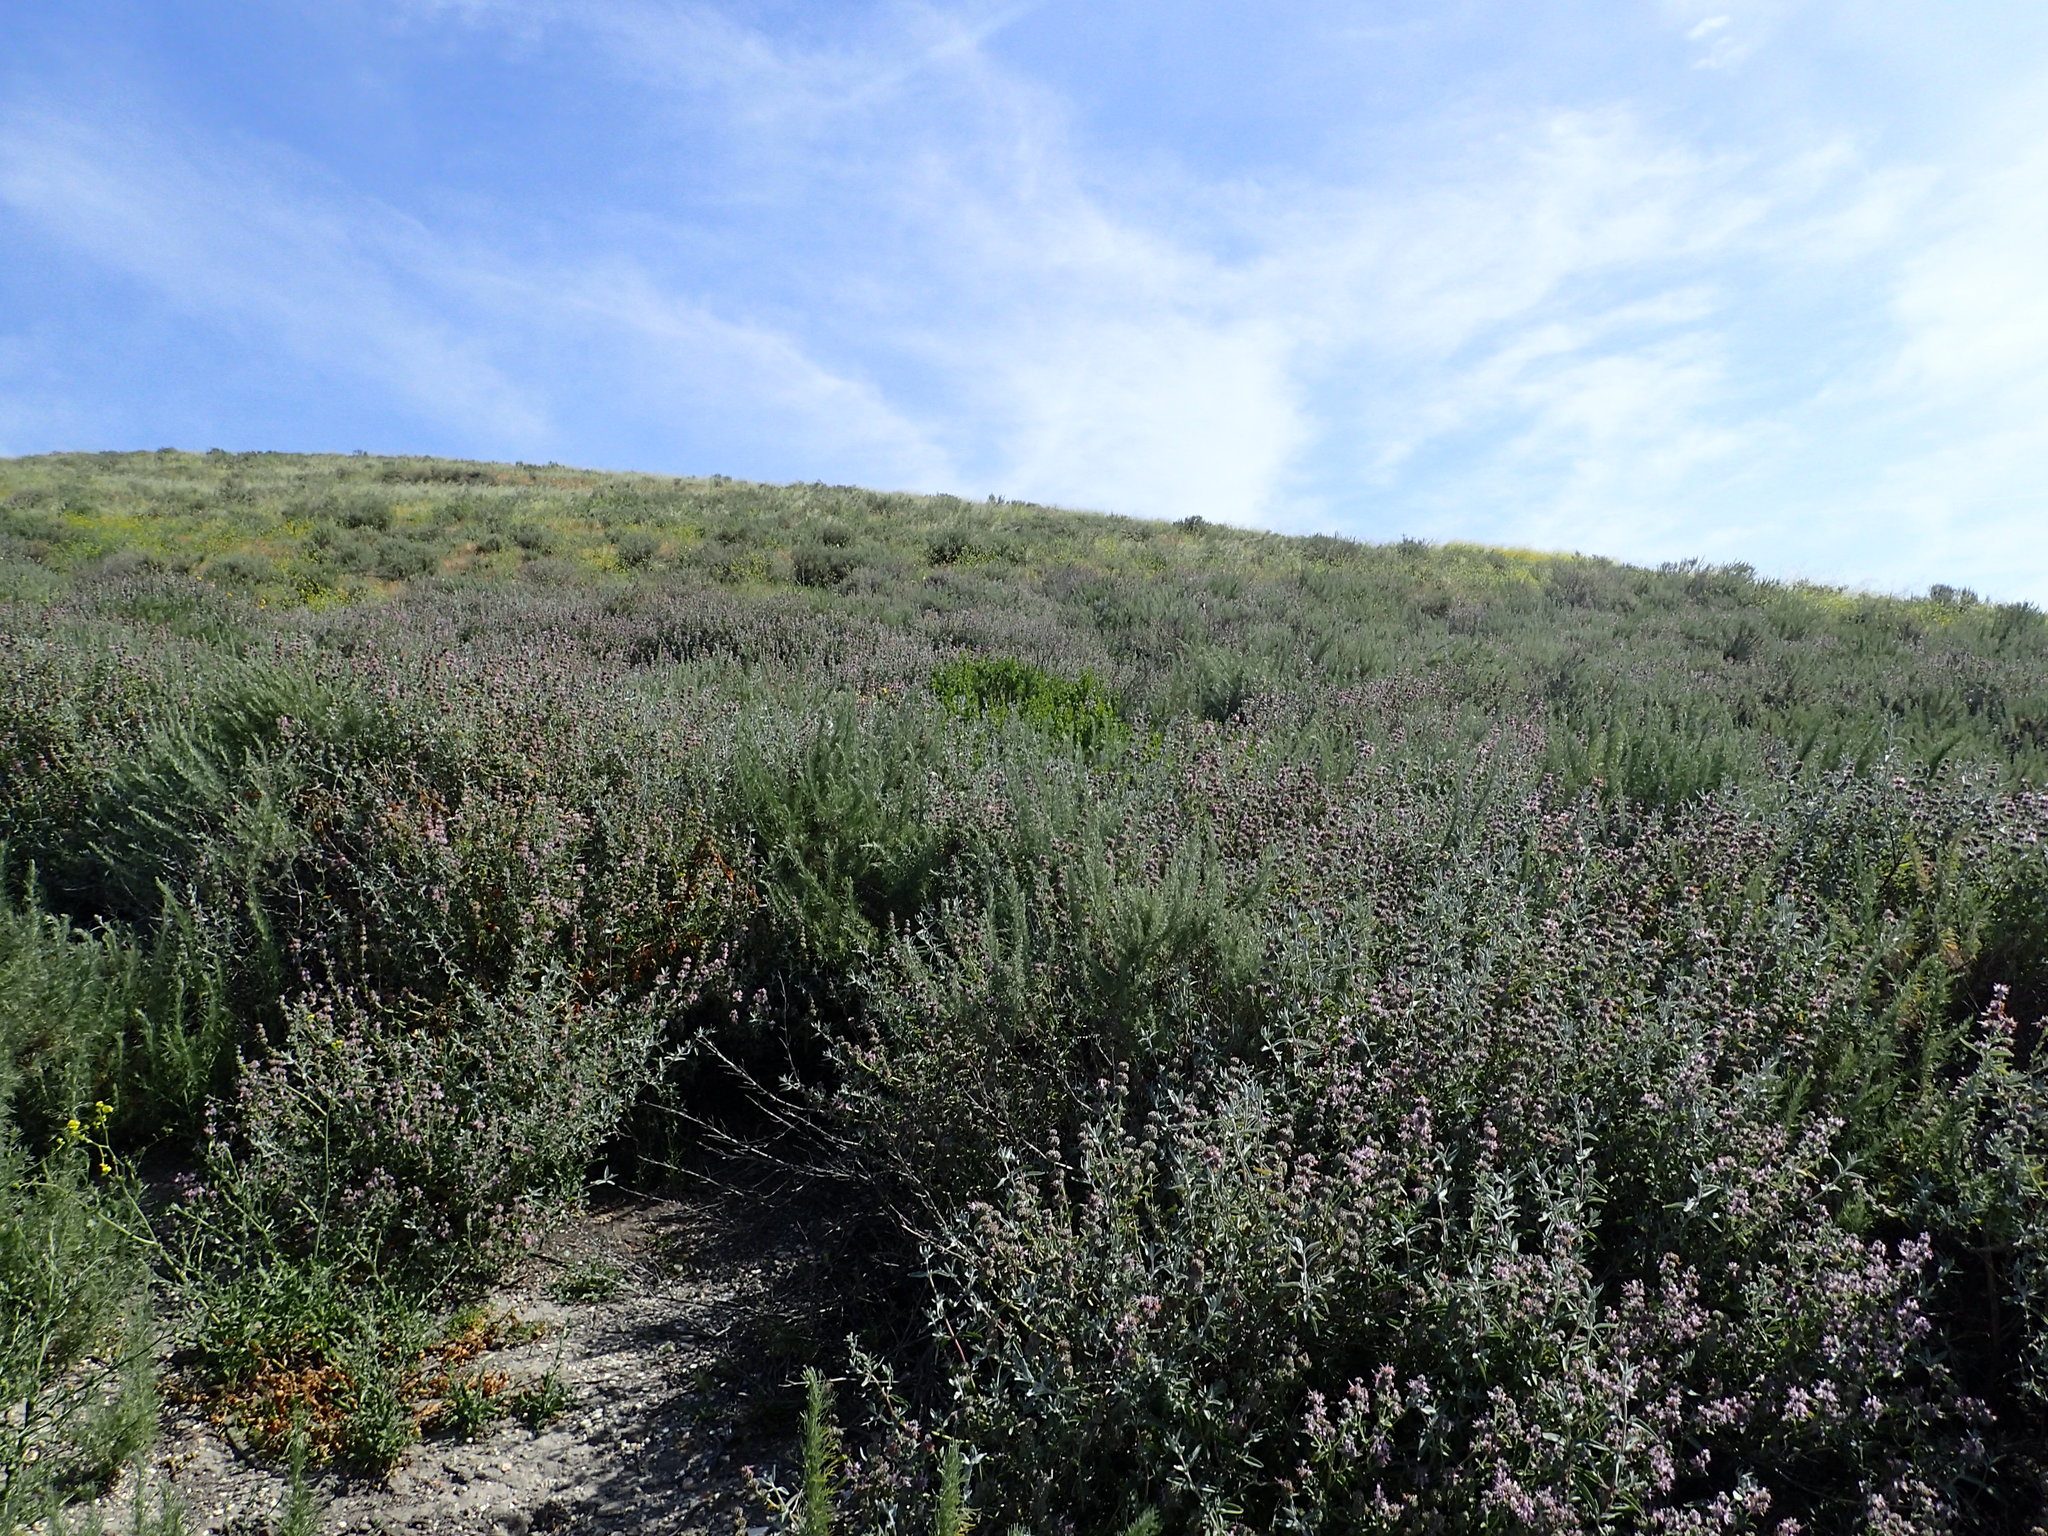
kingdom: Plantae
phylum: Tracheophyta
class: Magnoliopsida
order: Lamiales
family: Lamiaceae
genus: Salvia
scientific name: Salvia leucophylla
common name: Purple sage
